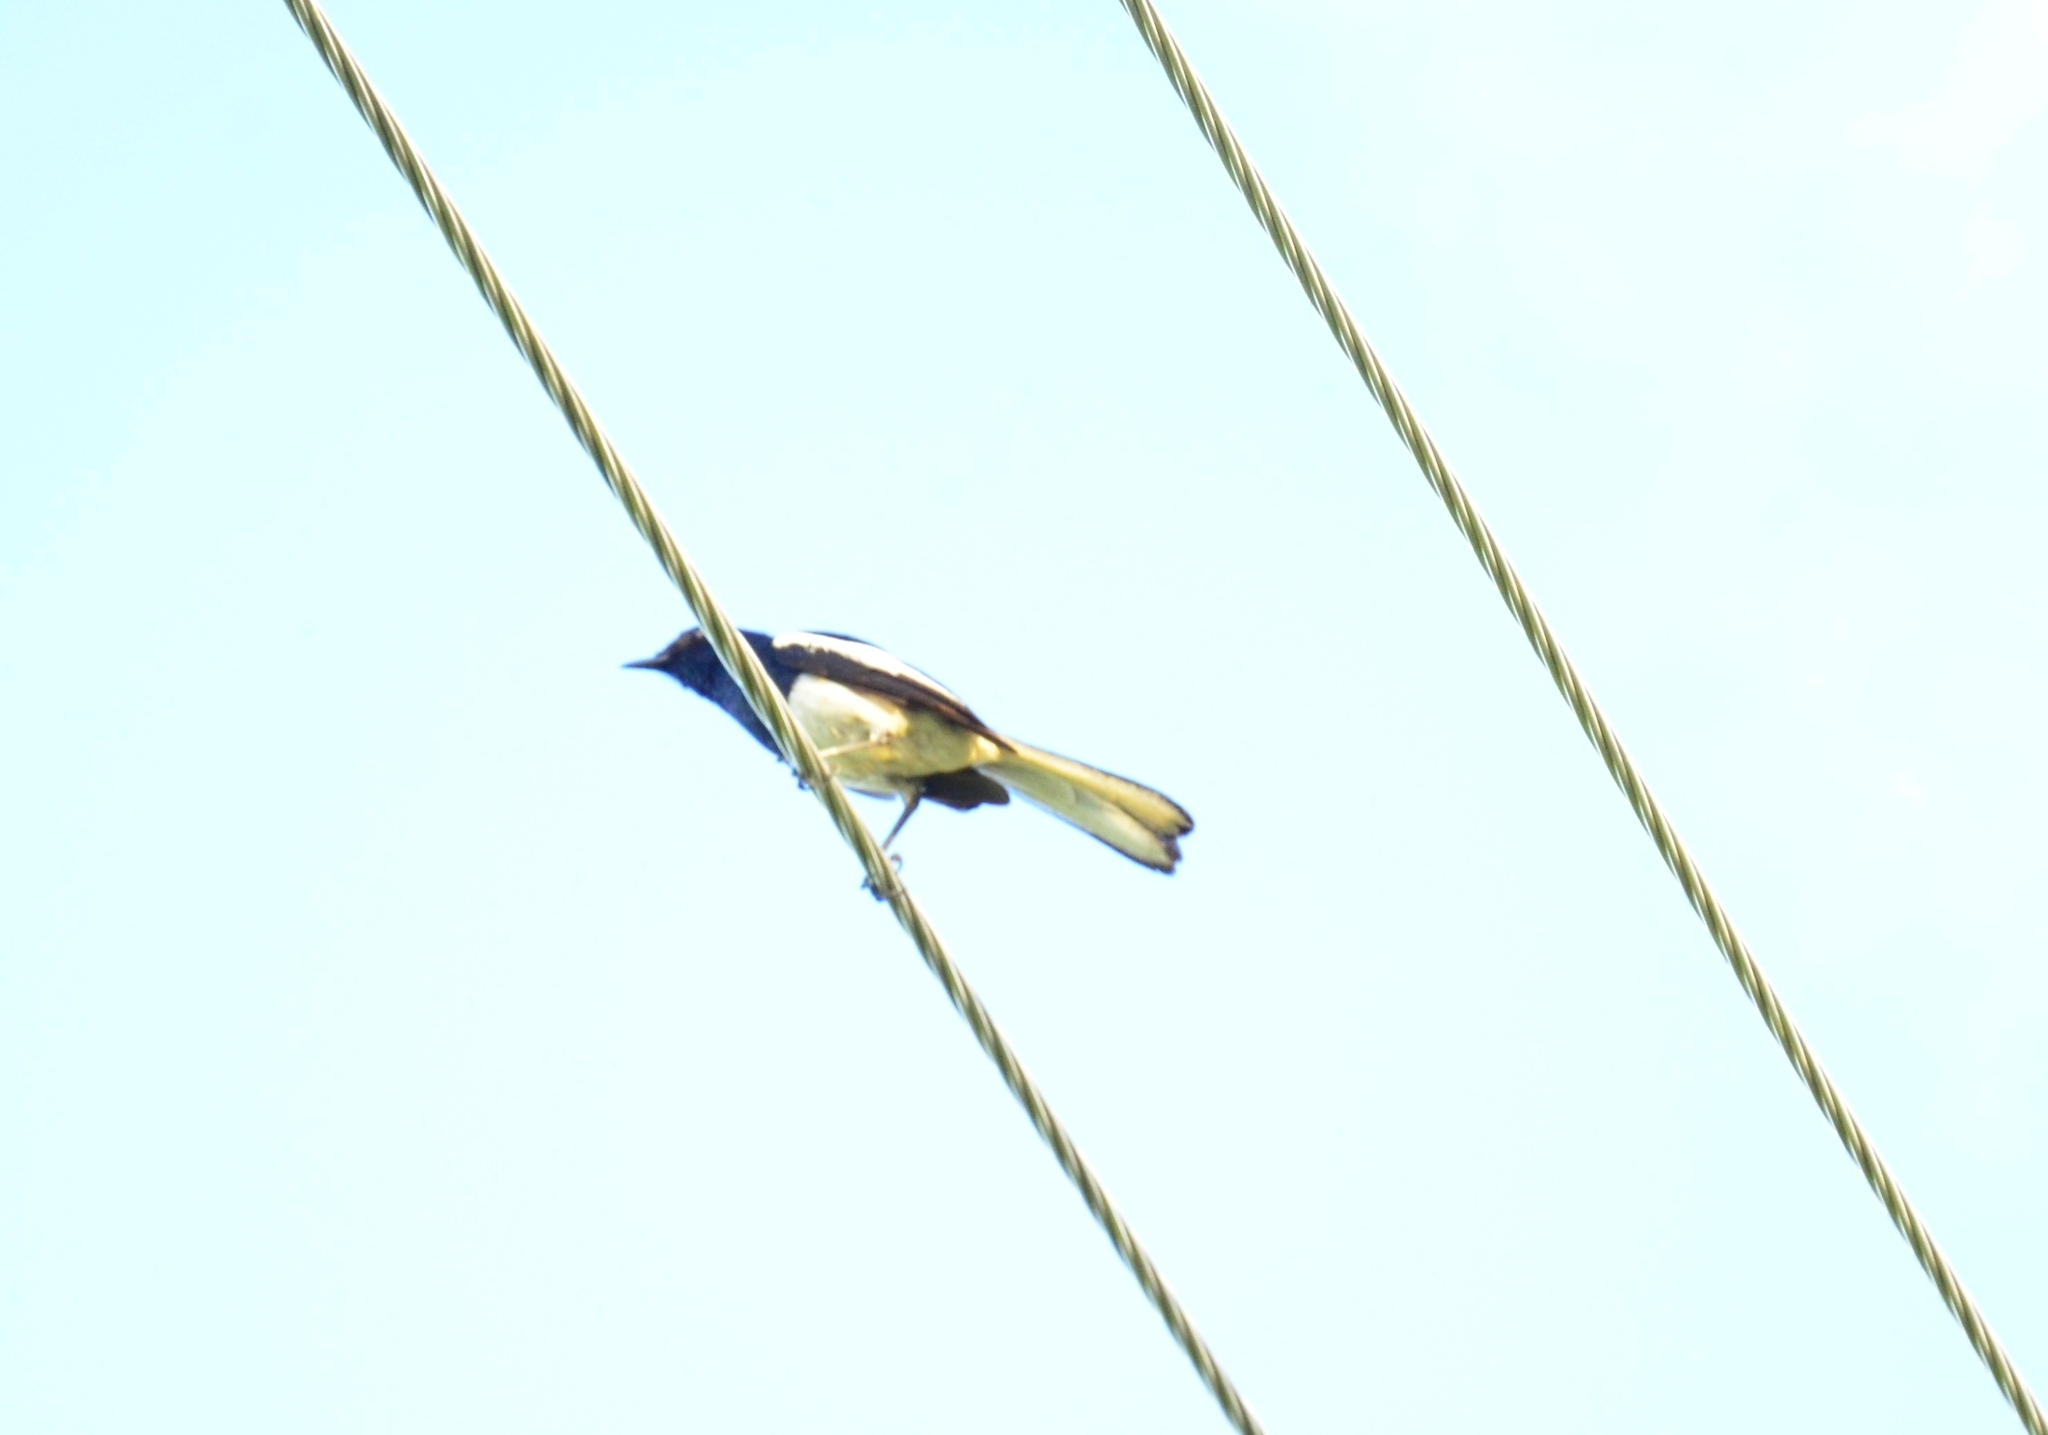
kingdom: Animalia
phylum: Chordata
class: Aves
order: Passeriformes
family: Muscicapidae
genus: Copsychus
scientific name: Copsychus saularis
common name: Oriental magpie-robin
